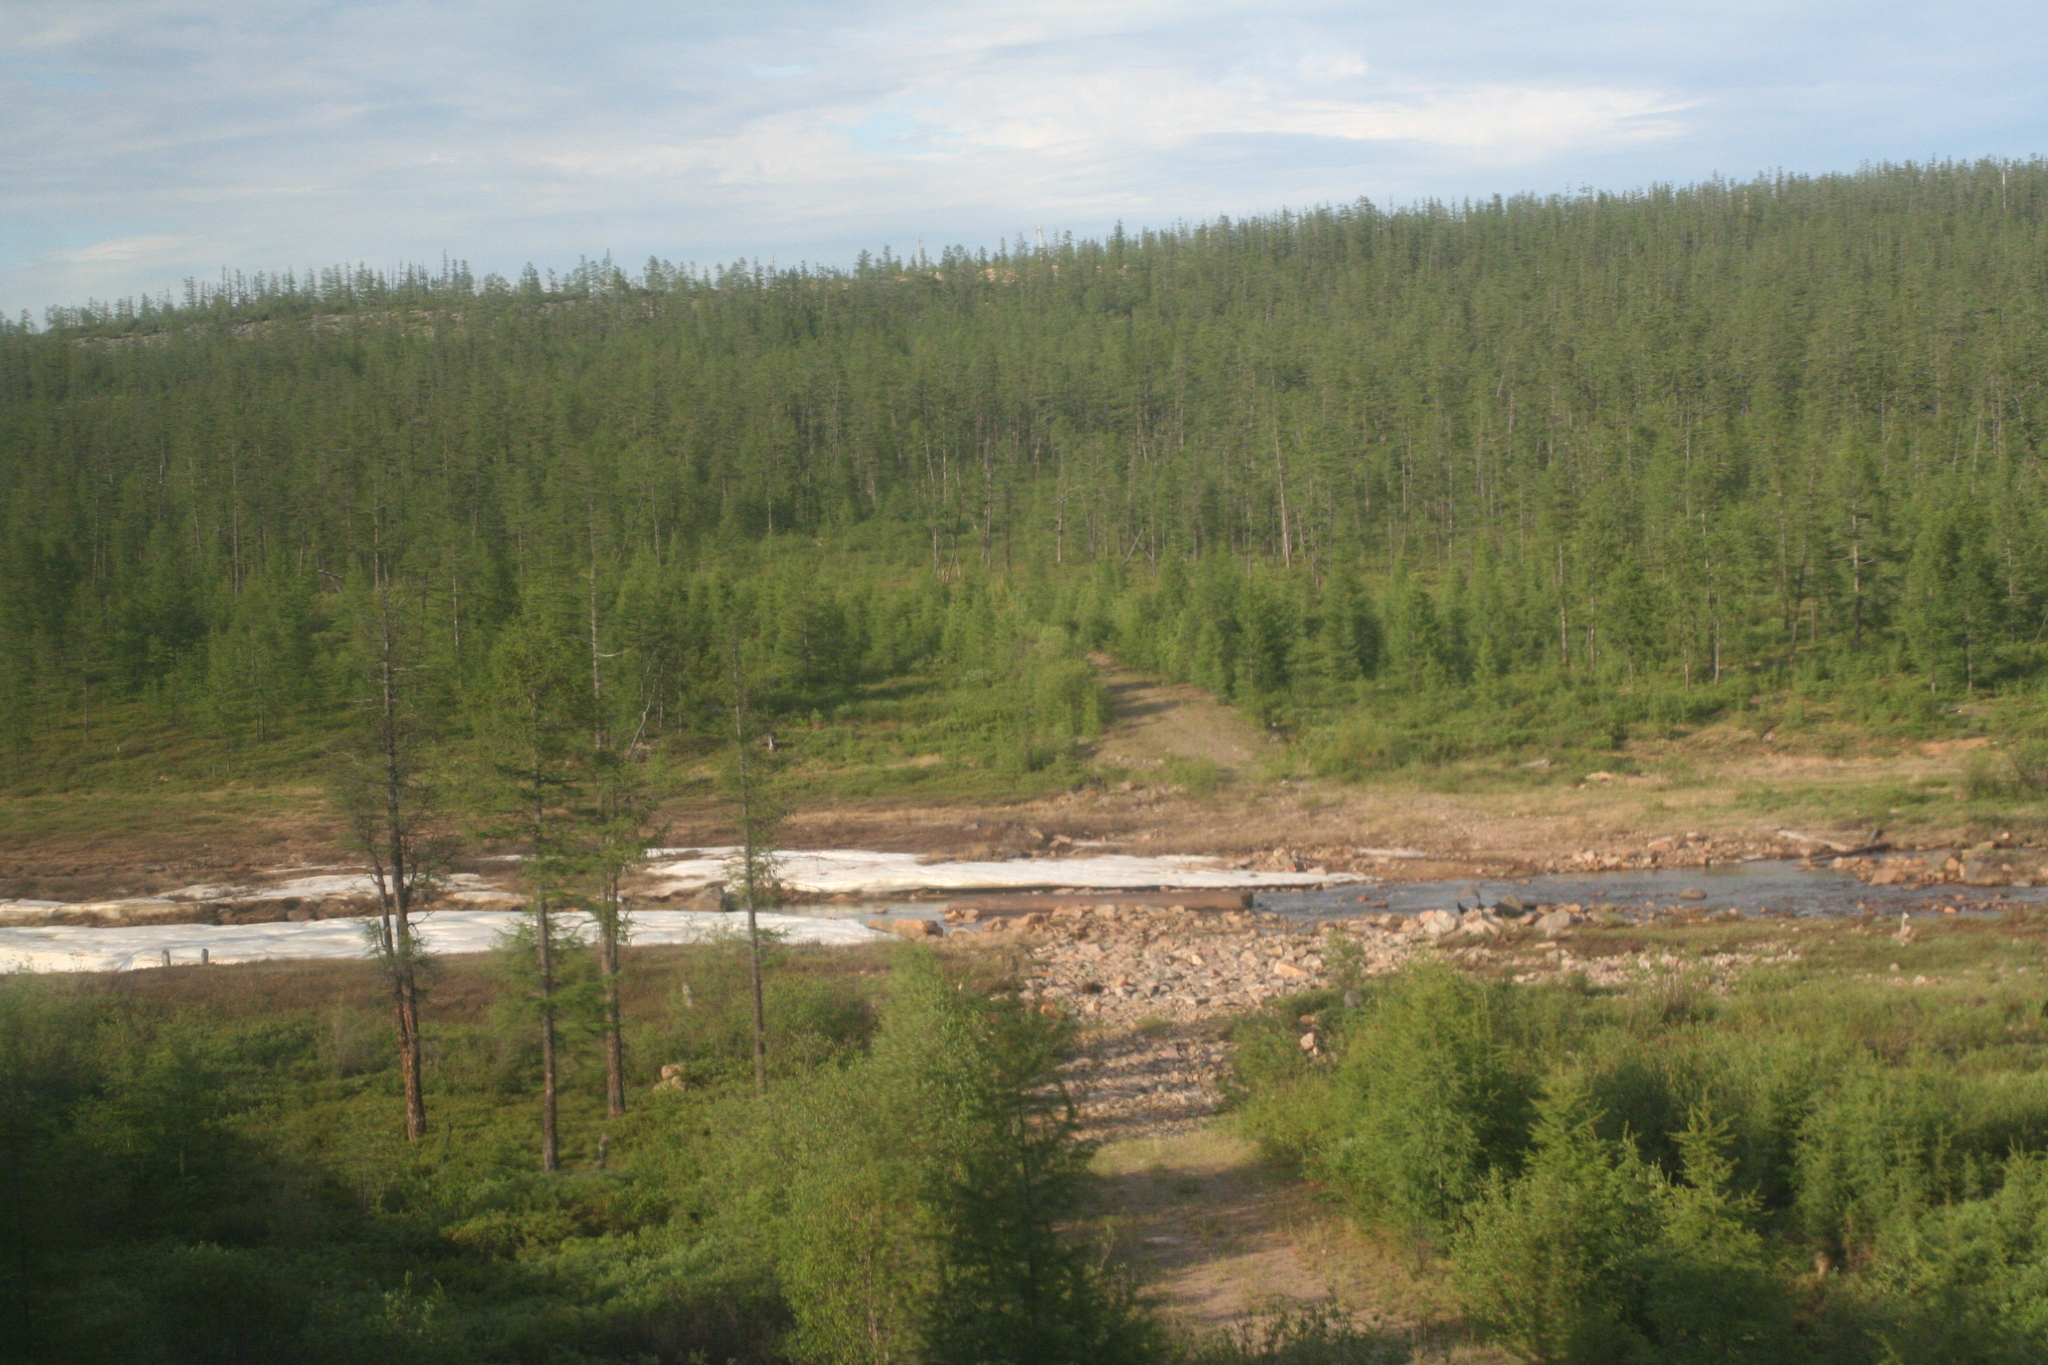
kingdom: Plantae
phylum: Tracheophyta
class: Pinopsida
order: Pinales
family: Pinaceae
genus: Larix
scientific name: Larix gmelinii
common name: Dahurian larch
